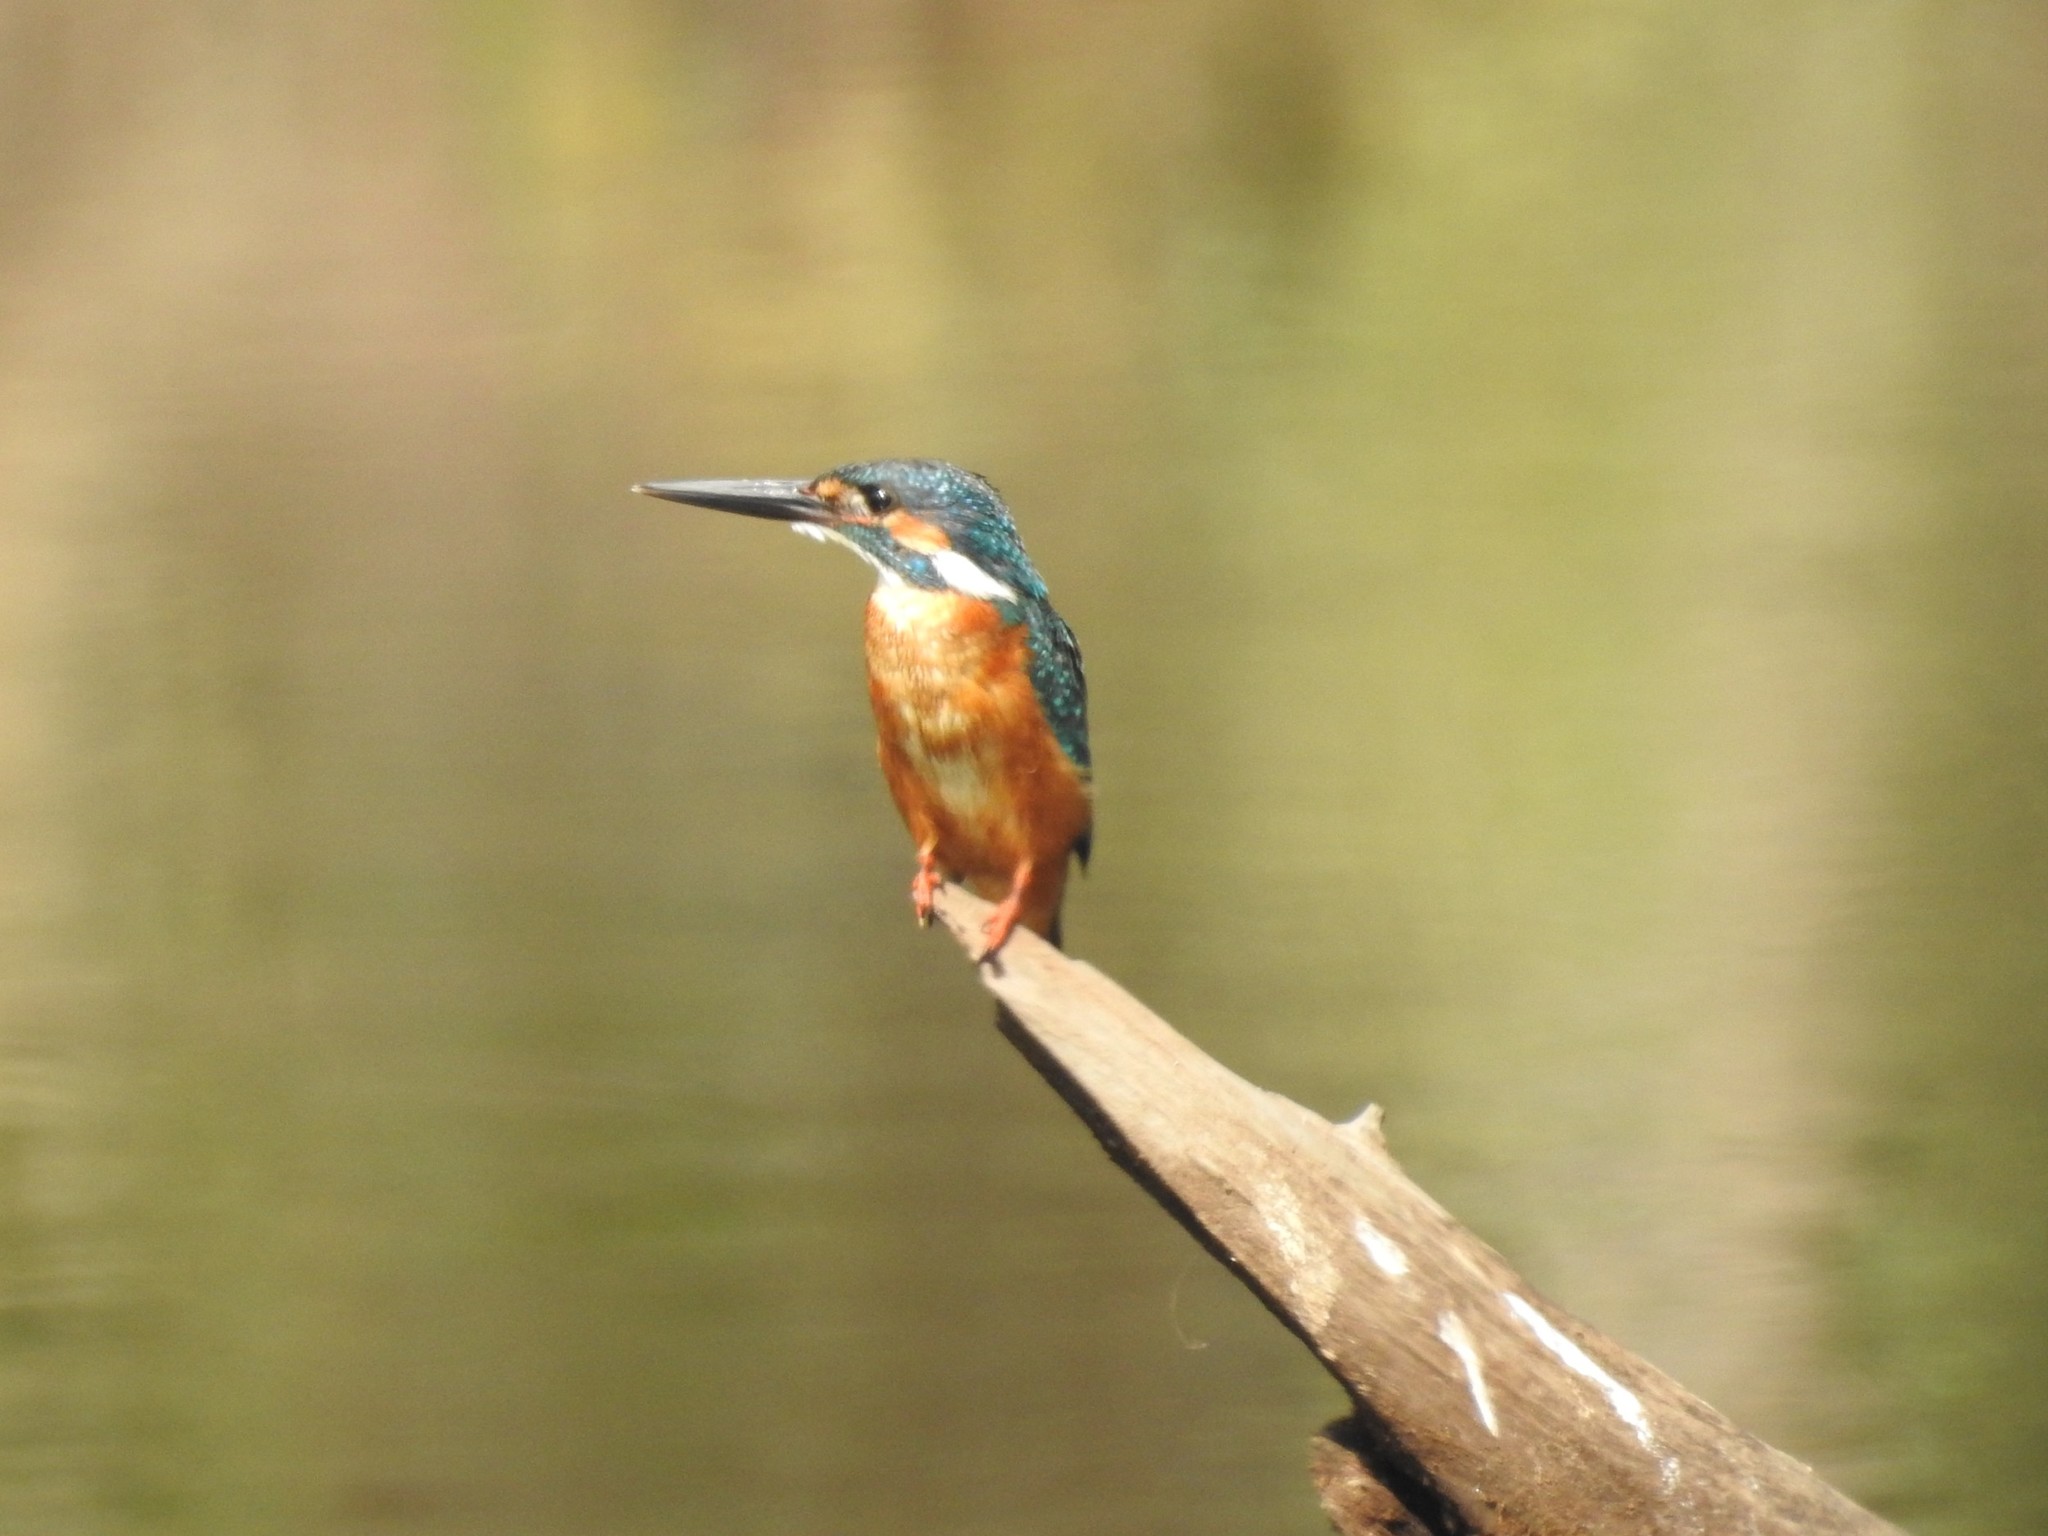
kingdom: Animalia
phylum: Chordata
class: Aves
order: Coraciiformes
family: Alcedinidae
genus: Alcedo
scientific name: Alcedo atthis
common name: Common kingfisher
